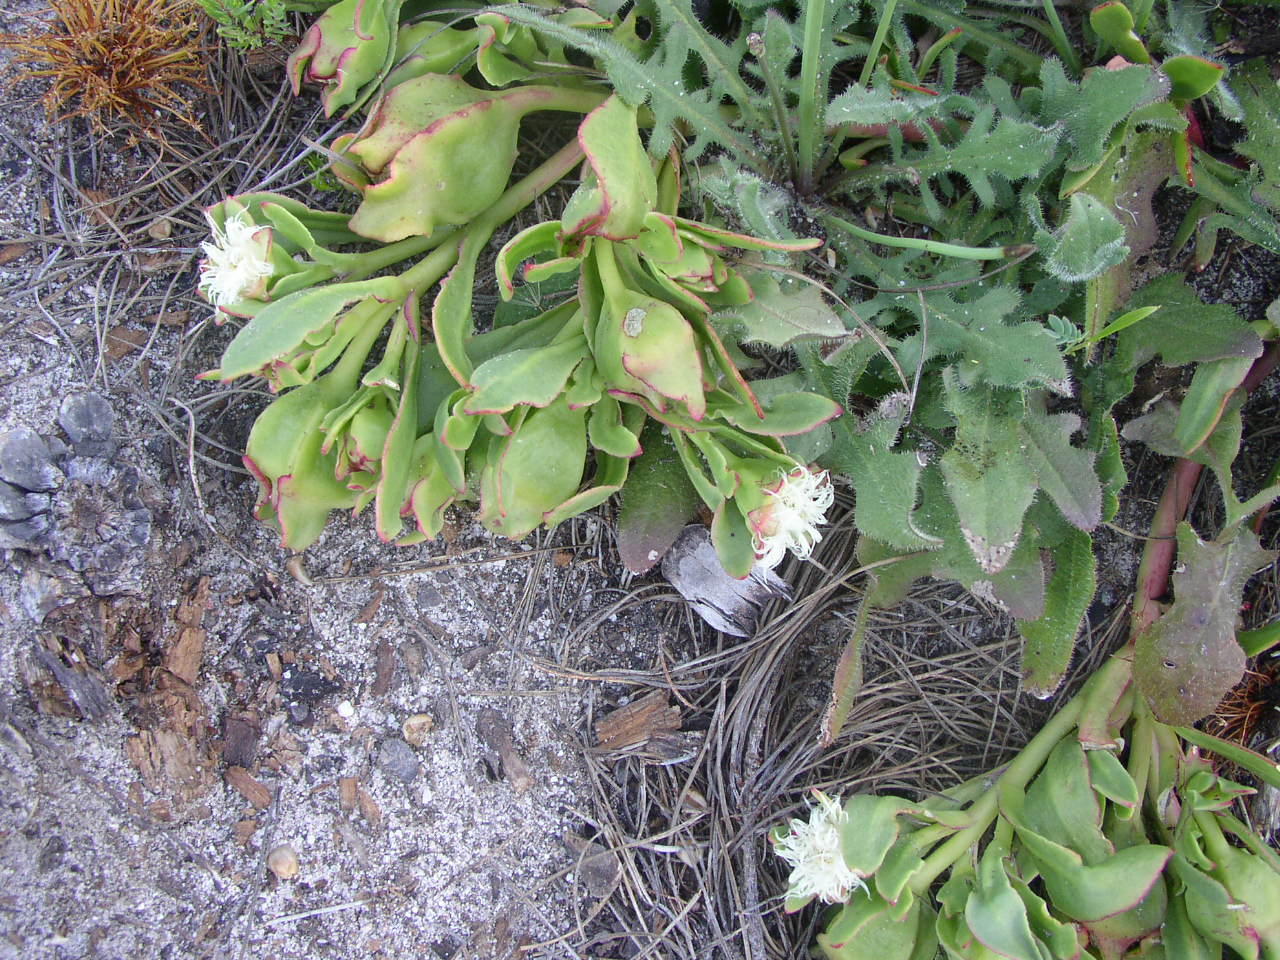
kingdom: Plantae
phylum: Tracheophyta
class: Magnoliopsida
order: Caryophyllales
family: Aizoaceae
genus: Skiatophytum
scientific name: Skiatophytum tripolium
